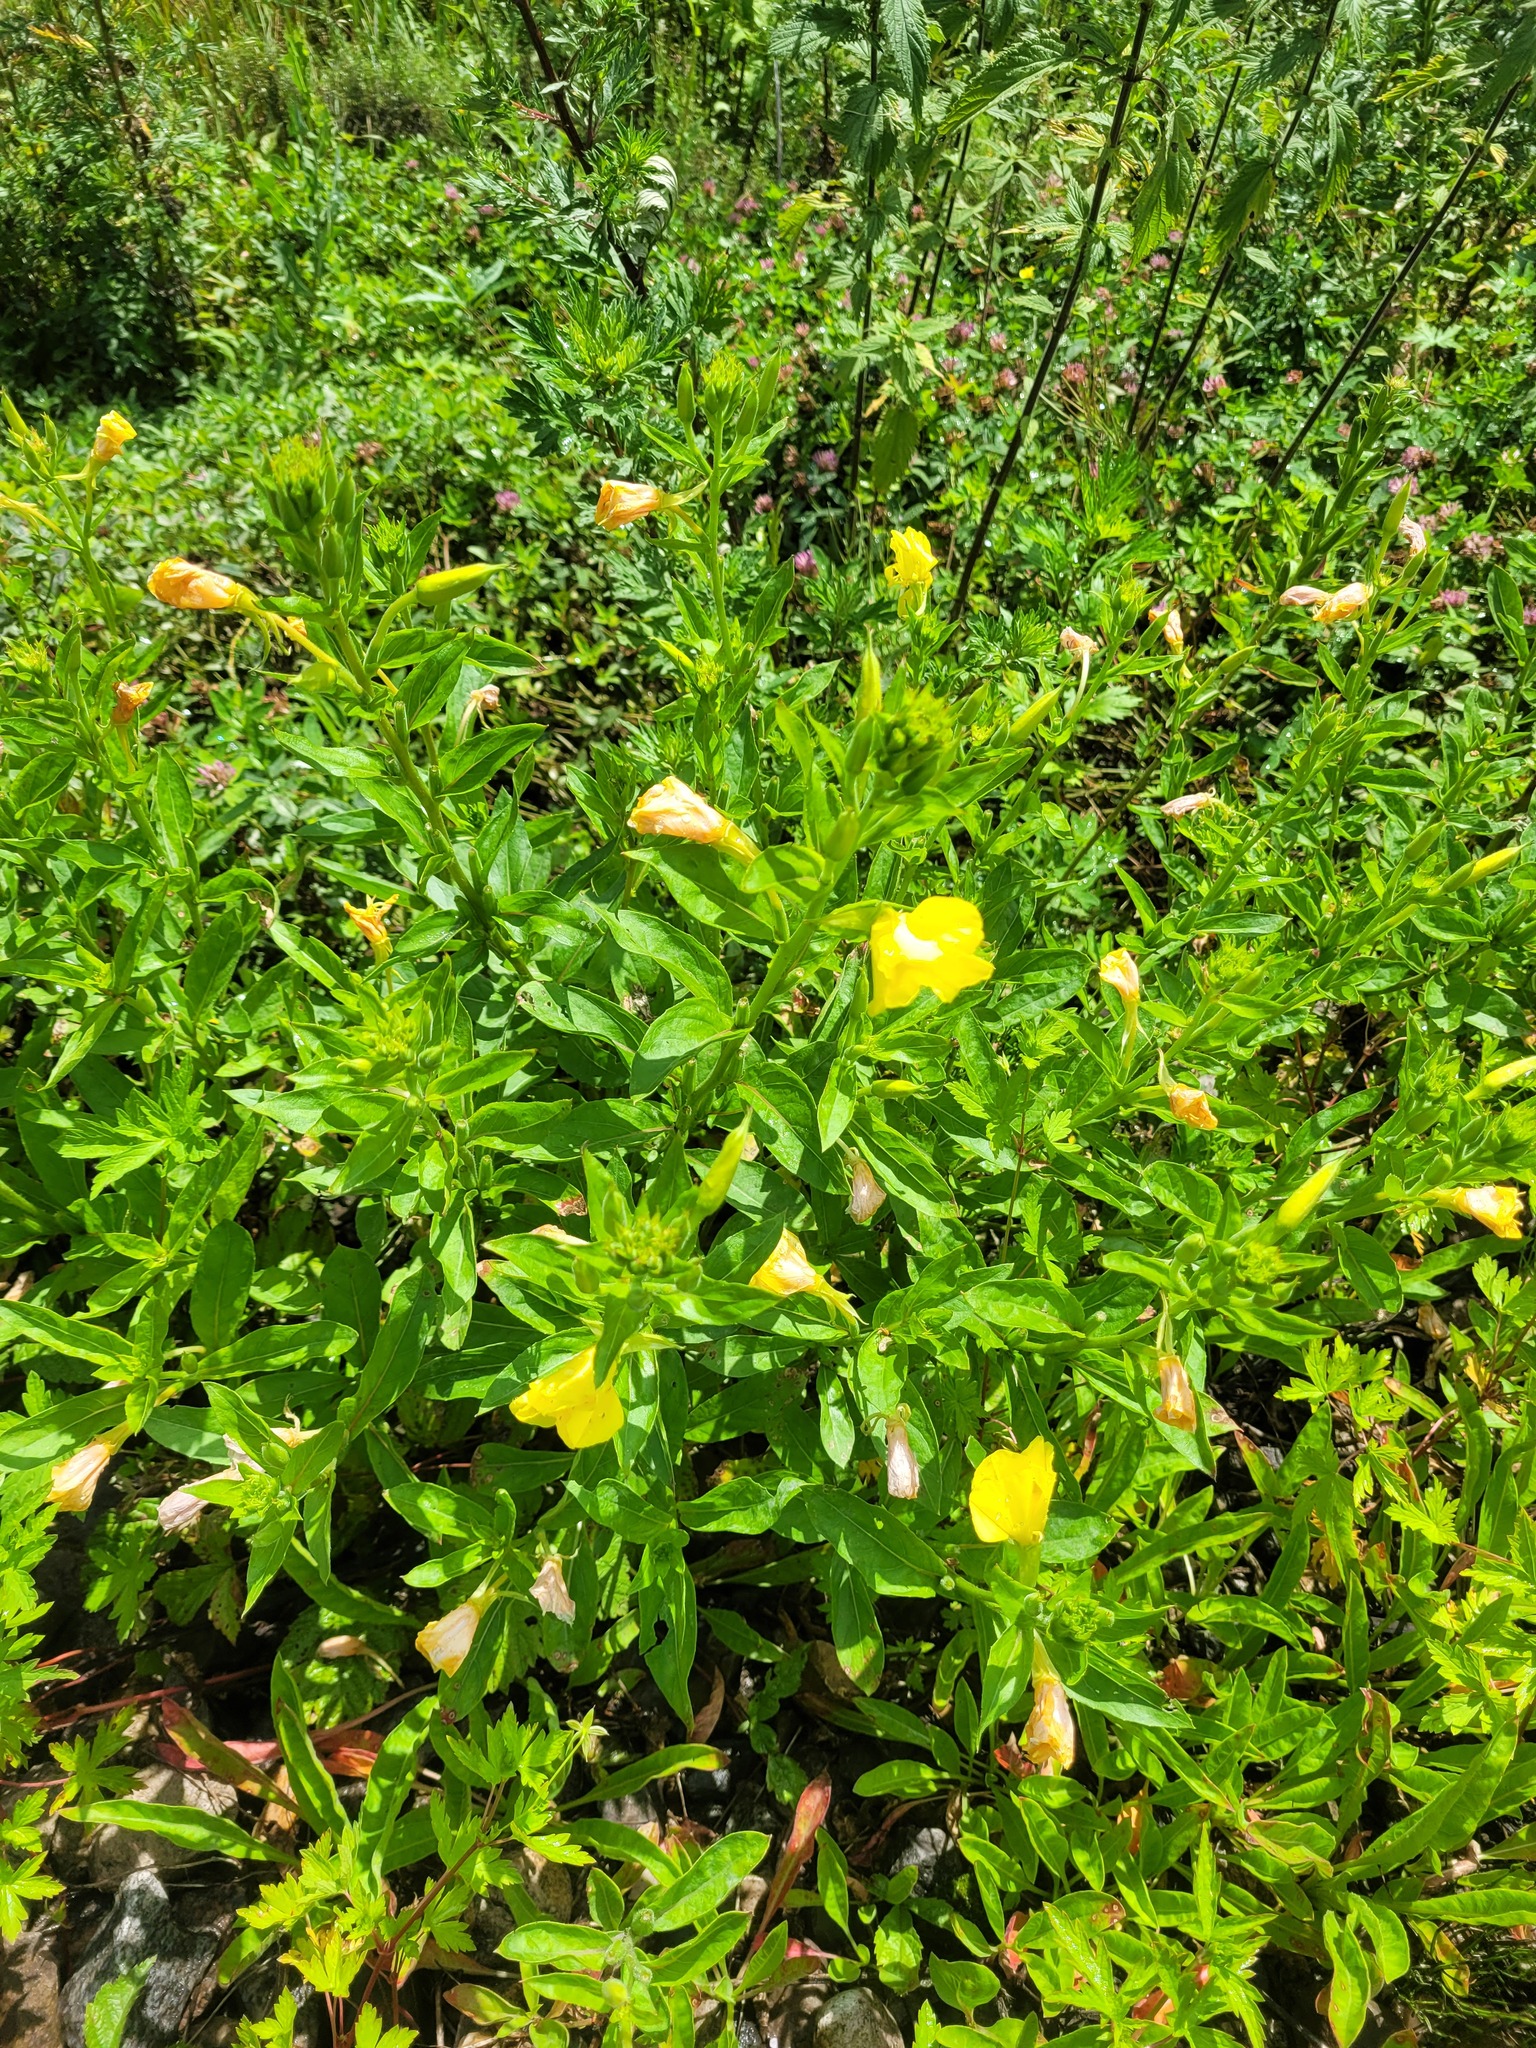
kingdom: Plantae
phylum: Tracheophyta
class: Magnoliopsida
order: Myrtales
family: Onagraceae
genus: Oenothera
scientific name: Oenothera biennis
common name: Common evening-primrose
